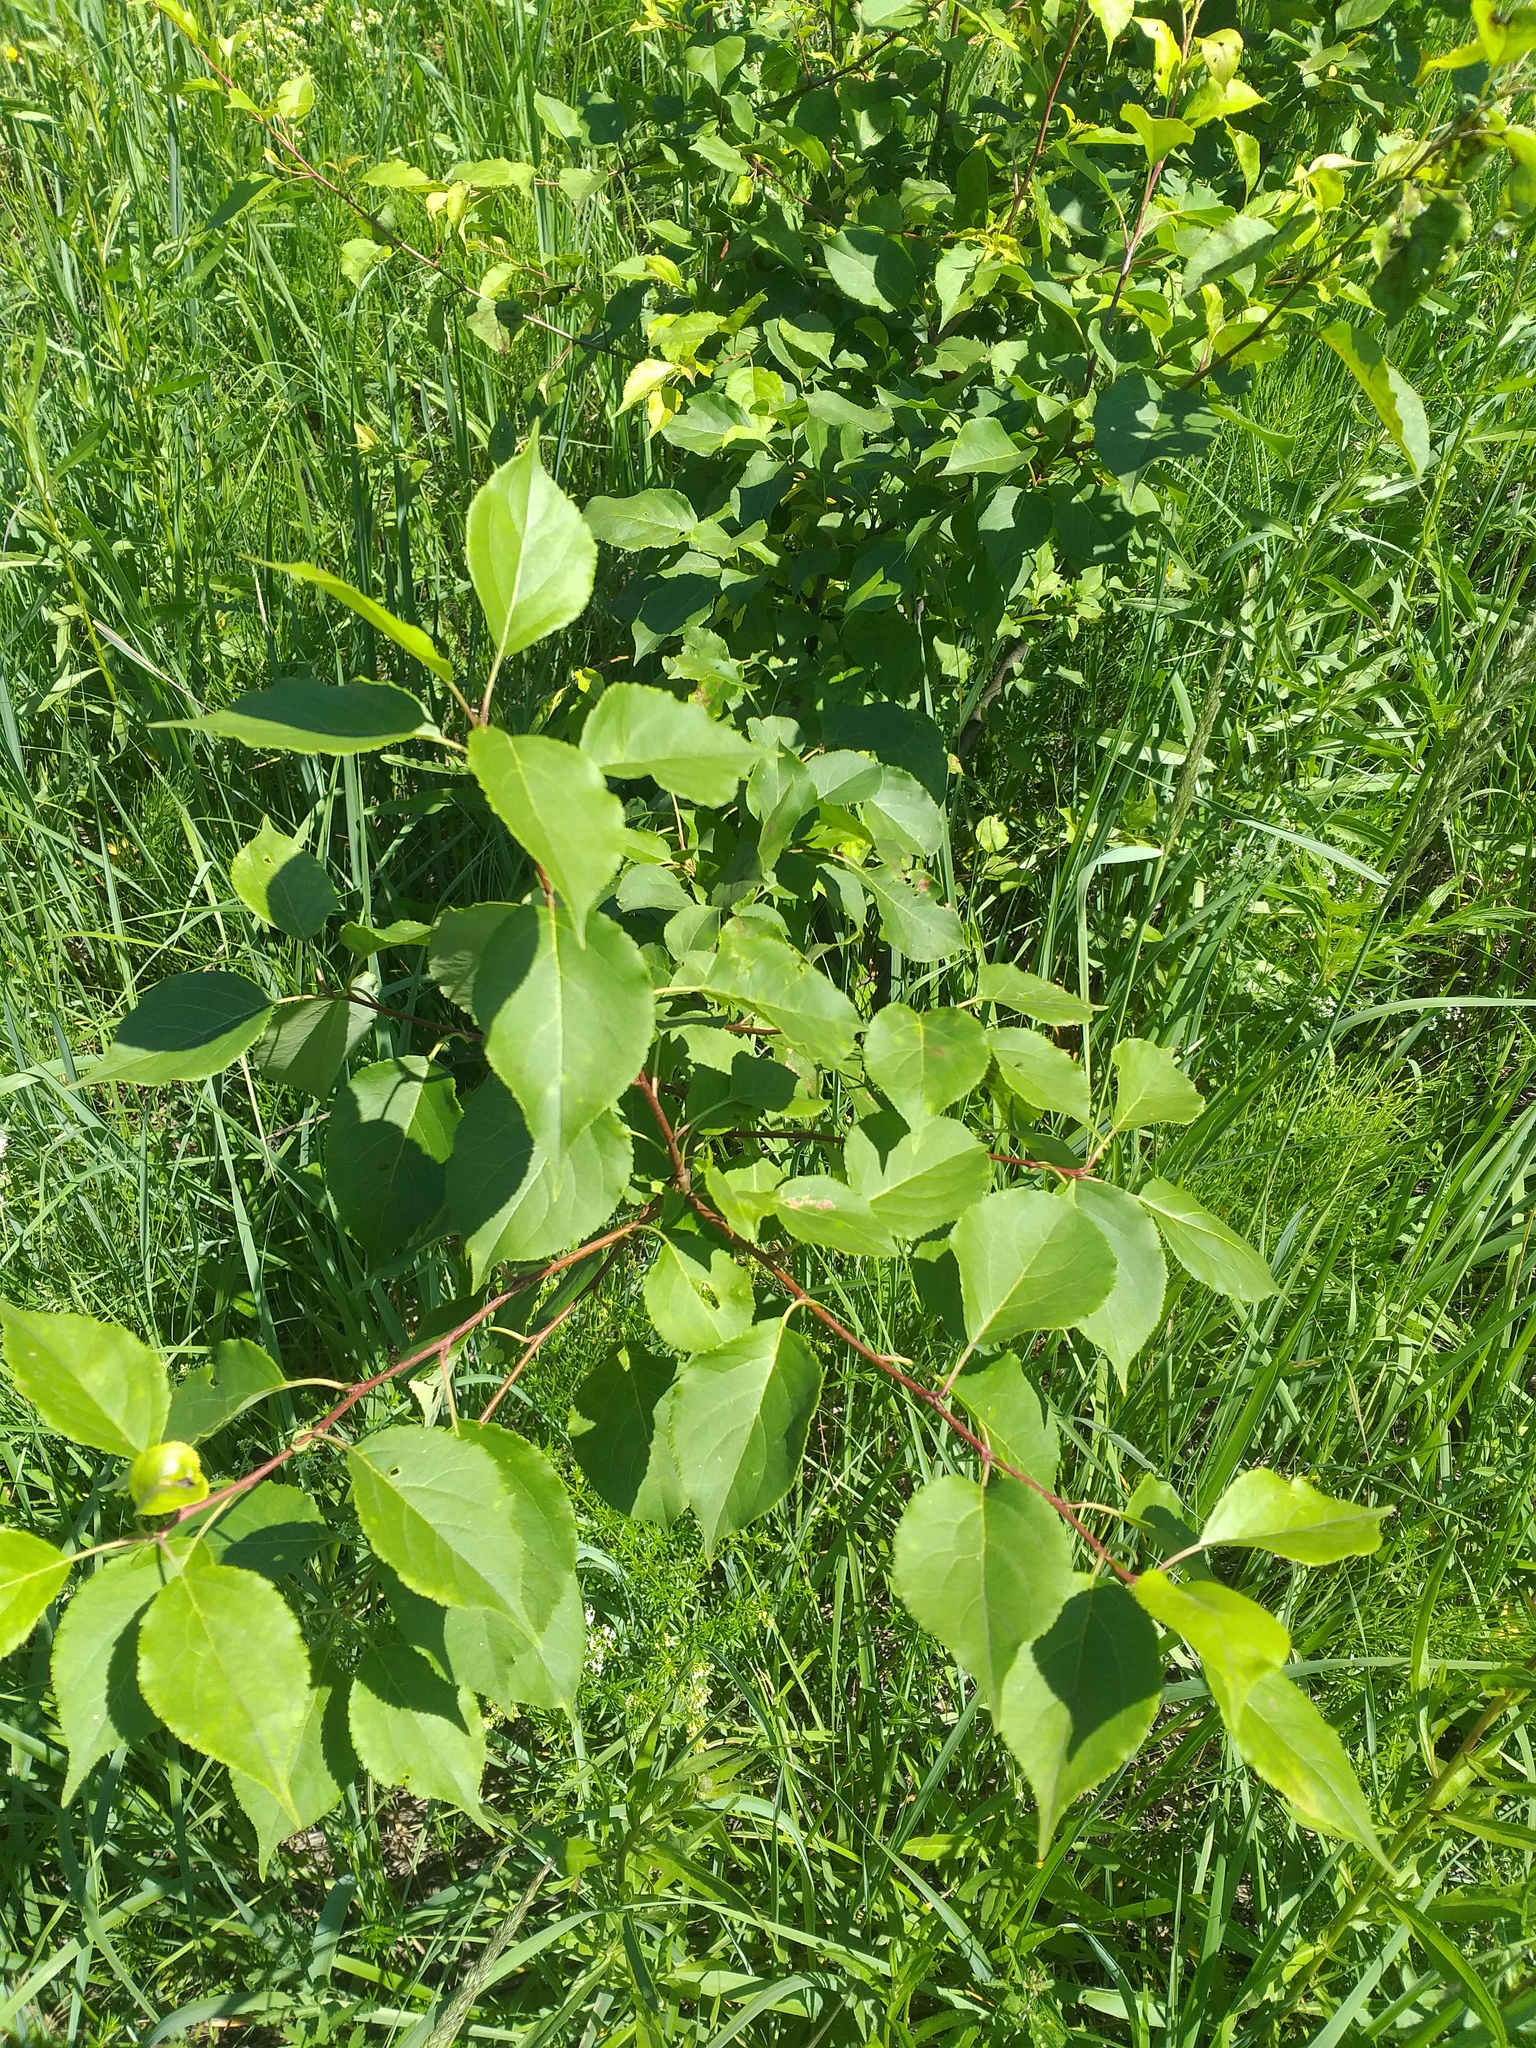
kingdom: Plantae
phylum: Tracheophyta
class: Magnoliopsida
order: Rosales
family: Rosaceae
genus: Malus
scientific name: Malus baccata
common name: Siberian crab
